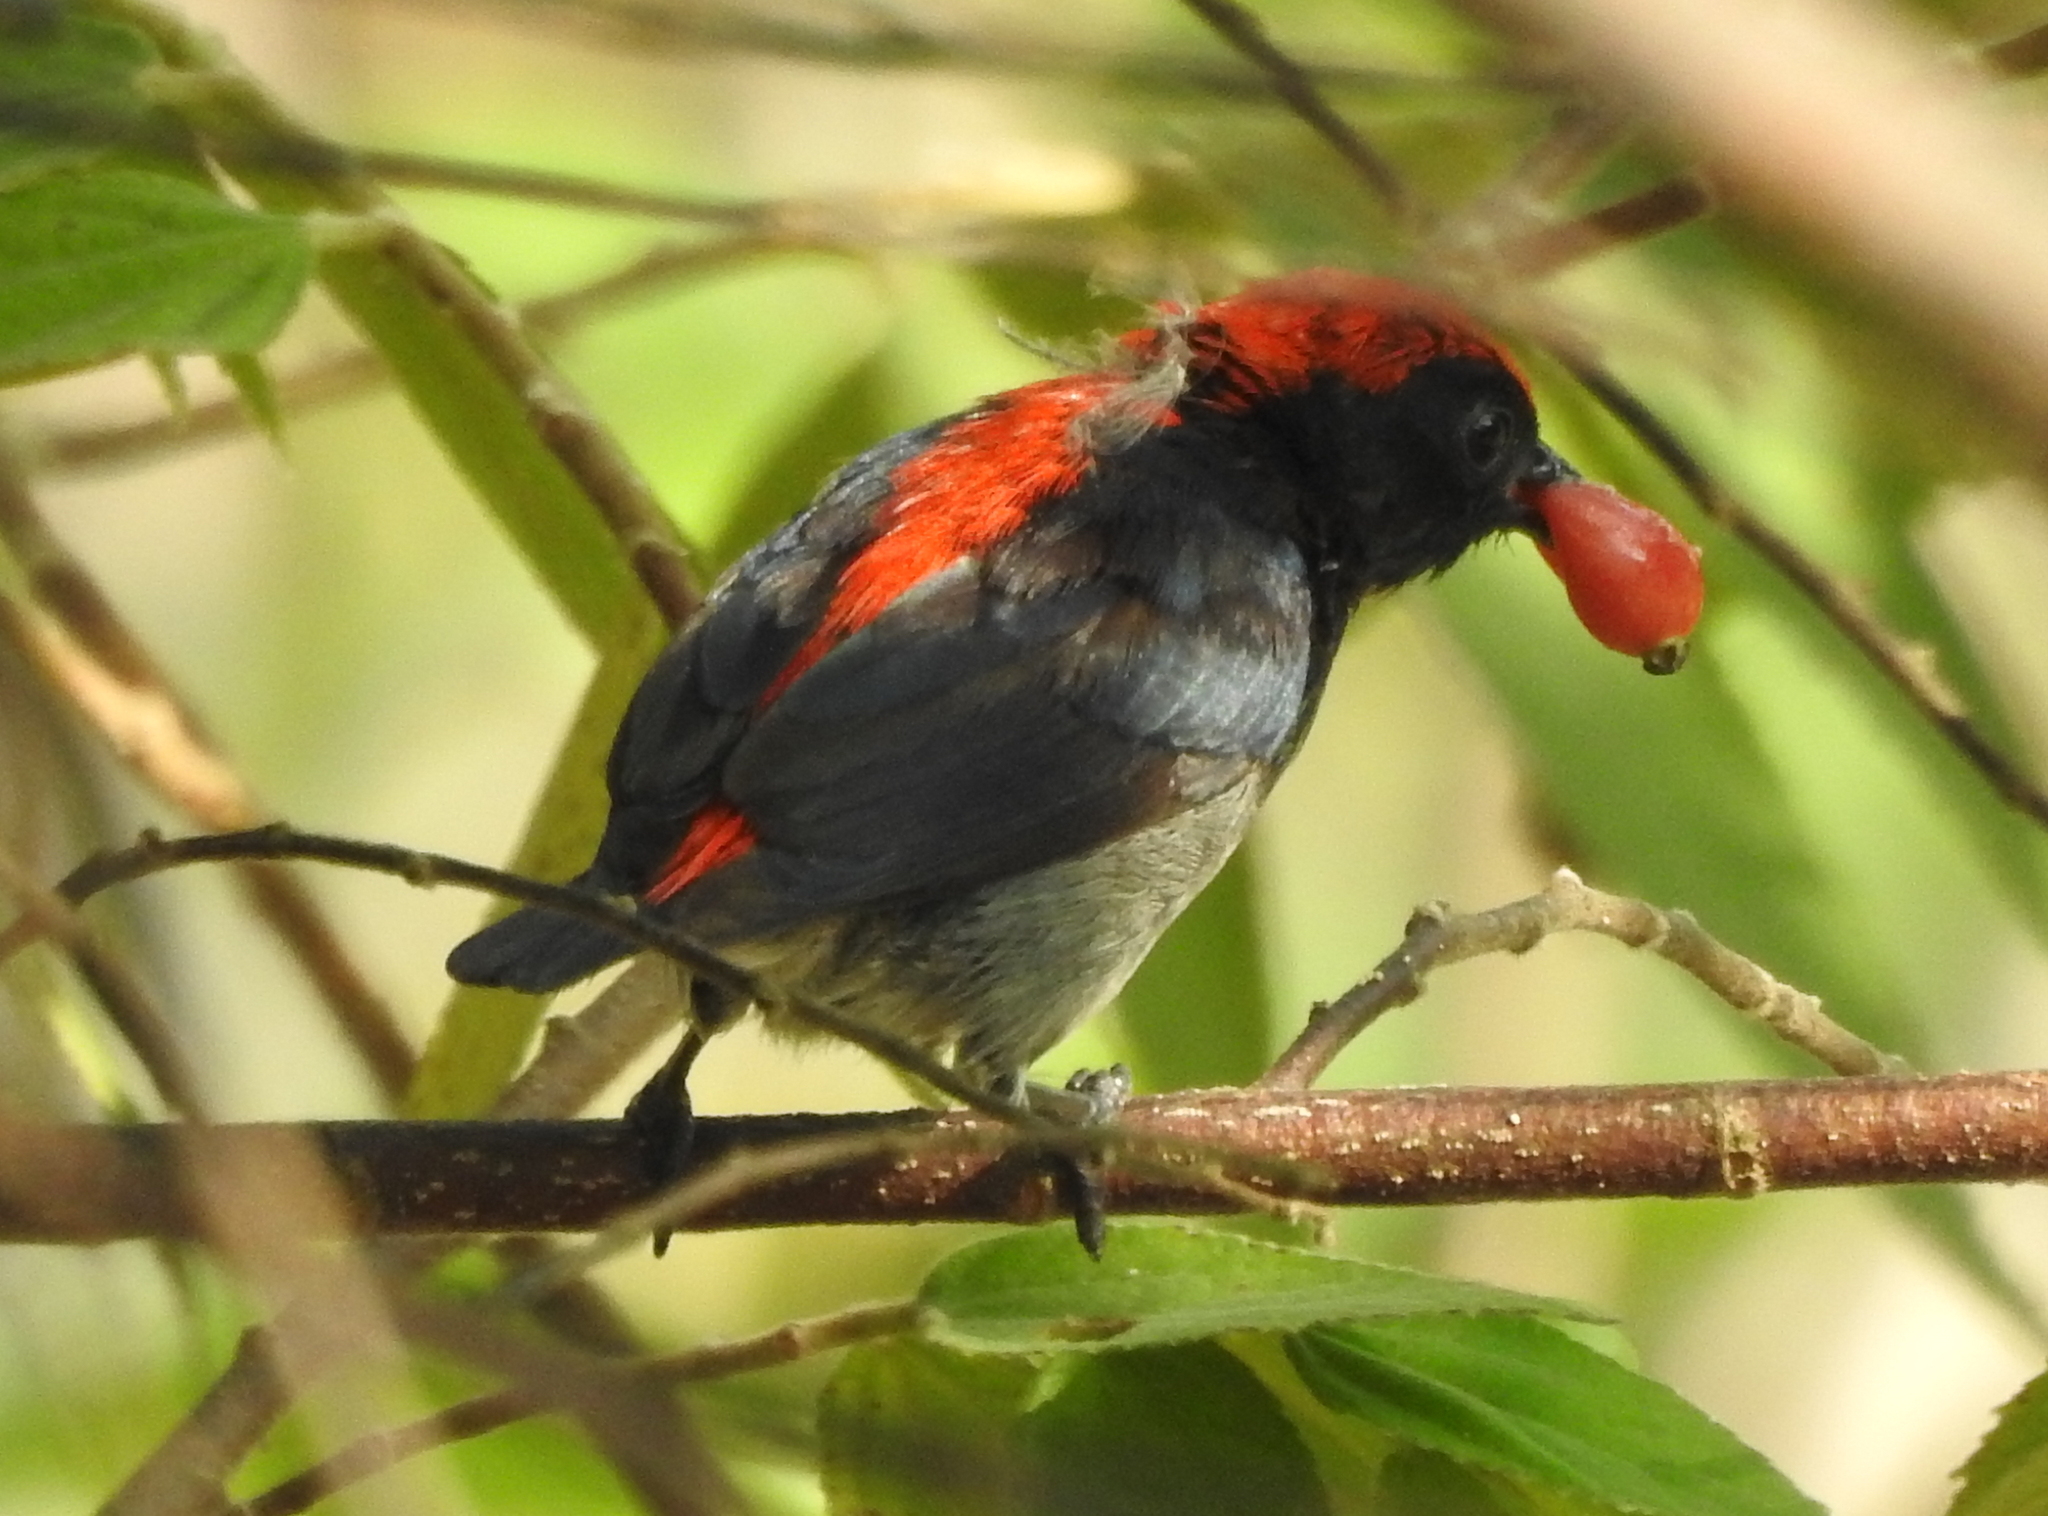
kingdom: Animalia
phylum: Chordata
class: Aves
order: Passeriformes
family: Dicaeidae
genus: Dicaeum
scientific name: Dicaeum cruentatum
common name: Scarlet-backed flowerpecker
